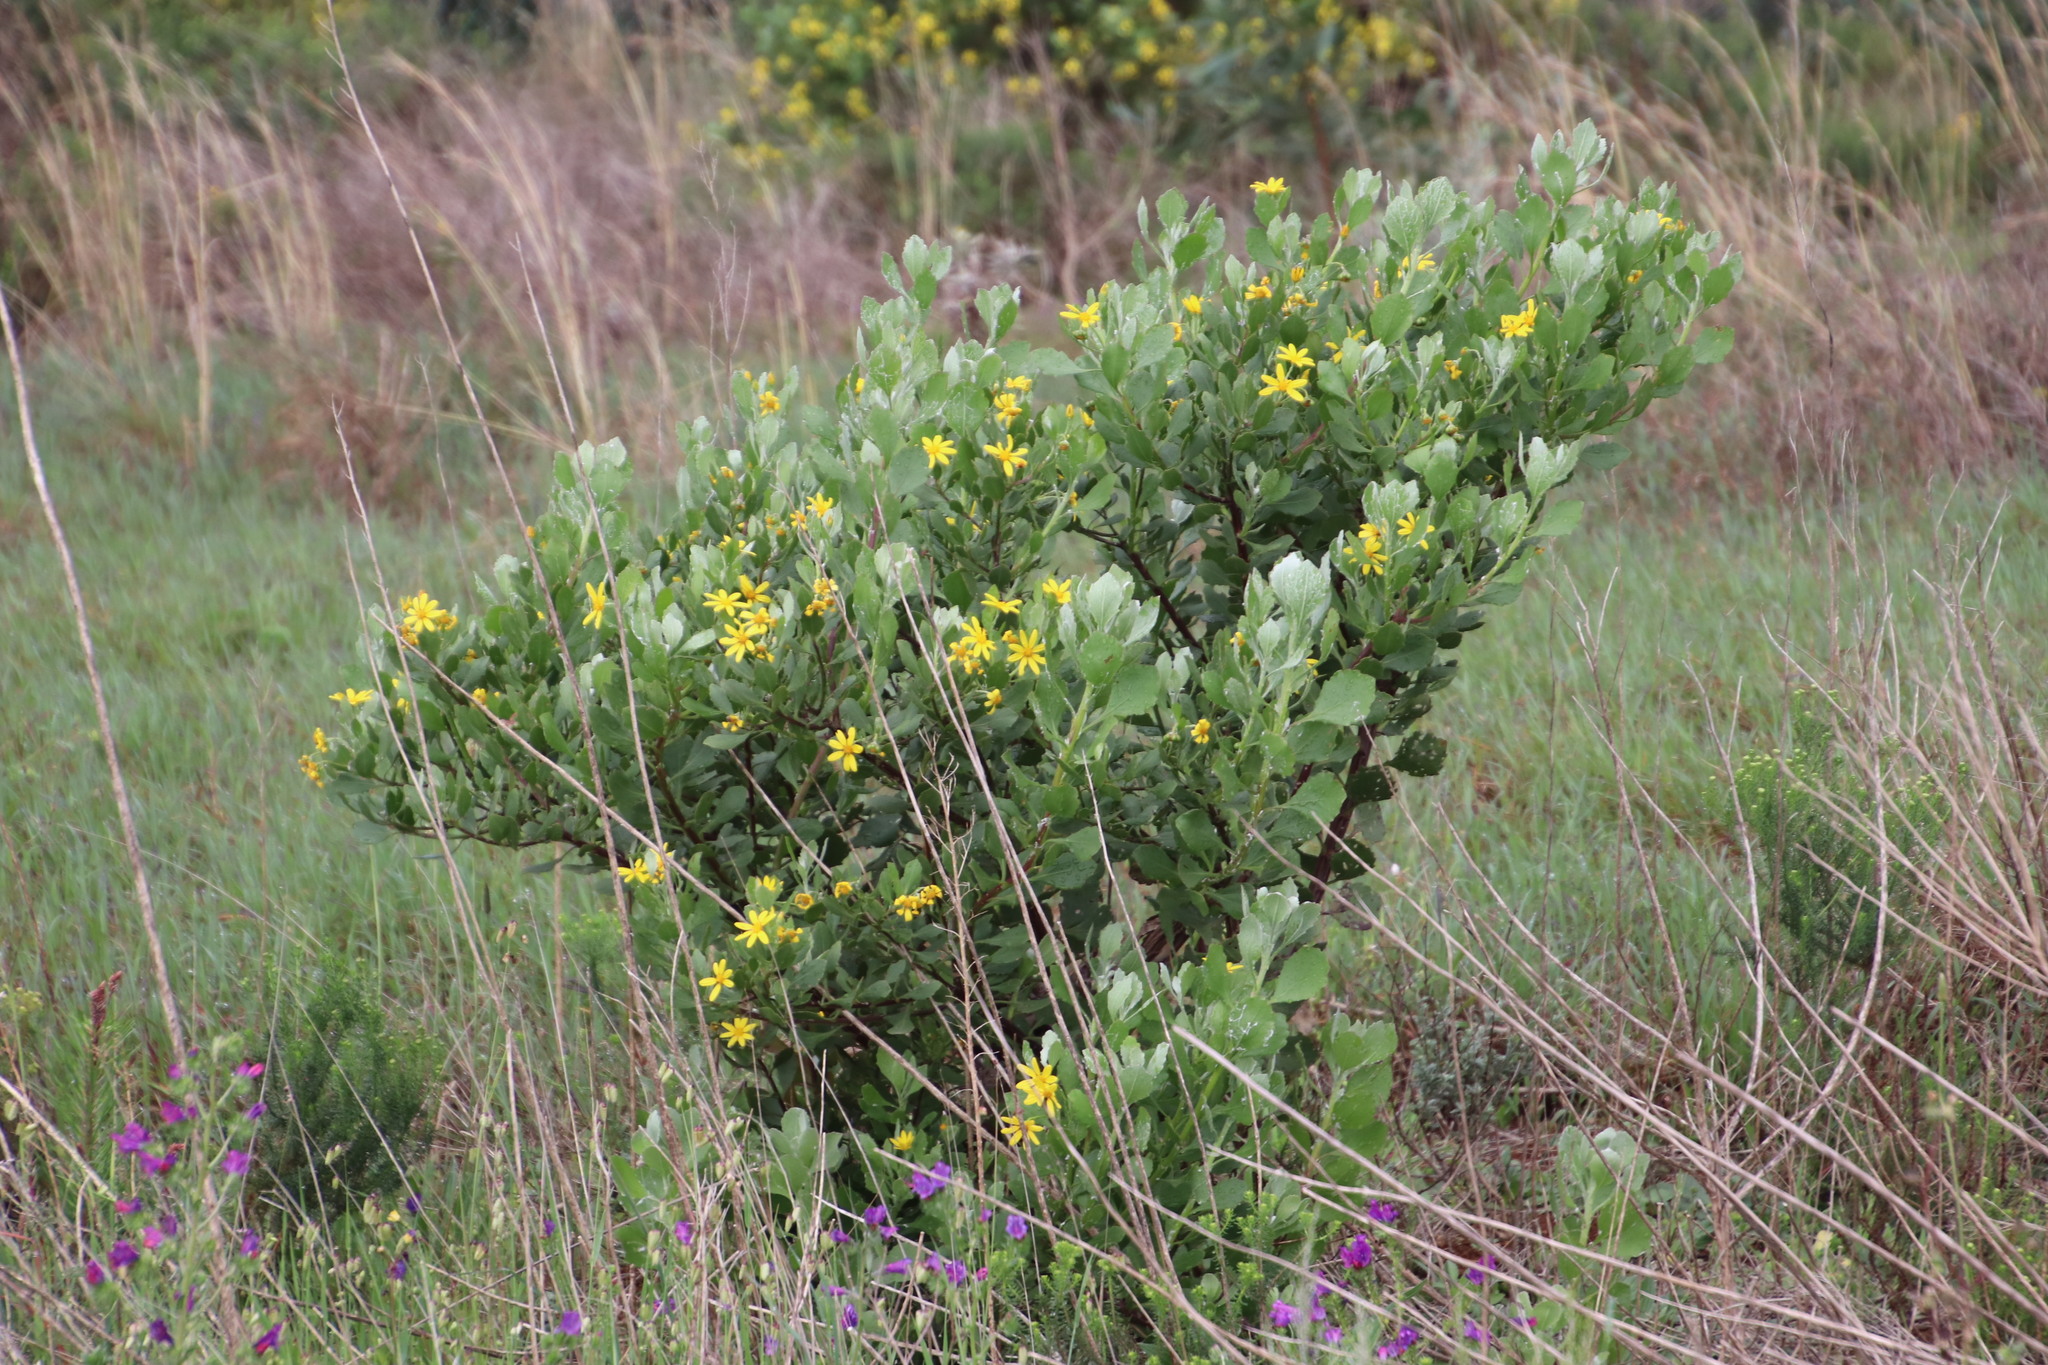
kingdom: Plantae
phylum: Tracheophyta
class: Magnoliopsida
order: Asterales
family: Asteraceae
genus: Osteospermum
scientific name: Osteospermum moniliferum
